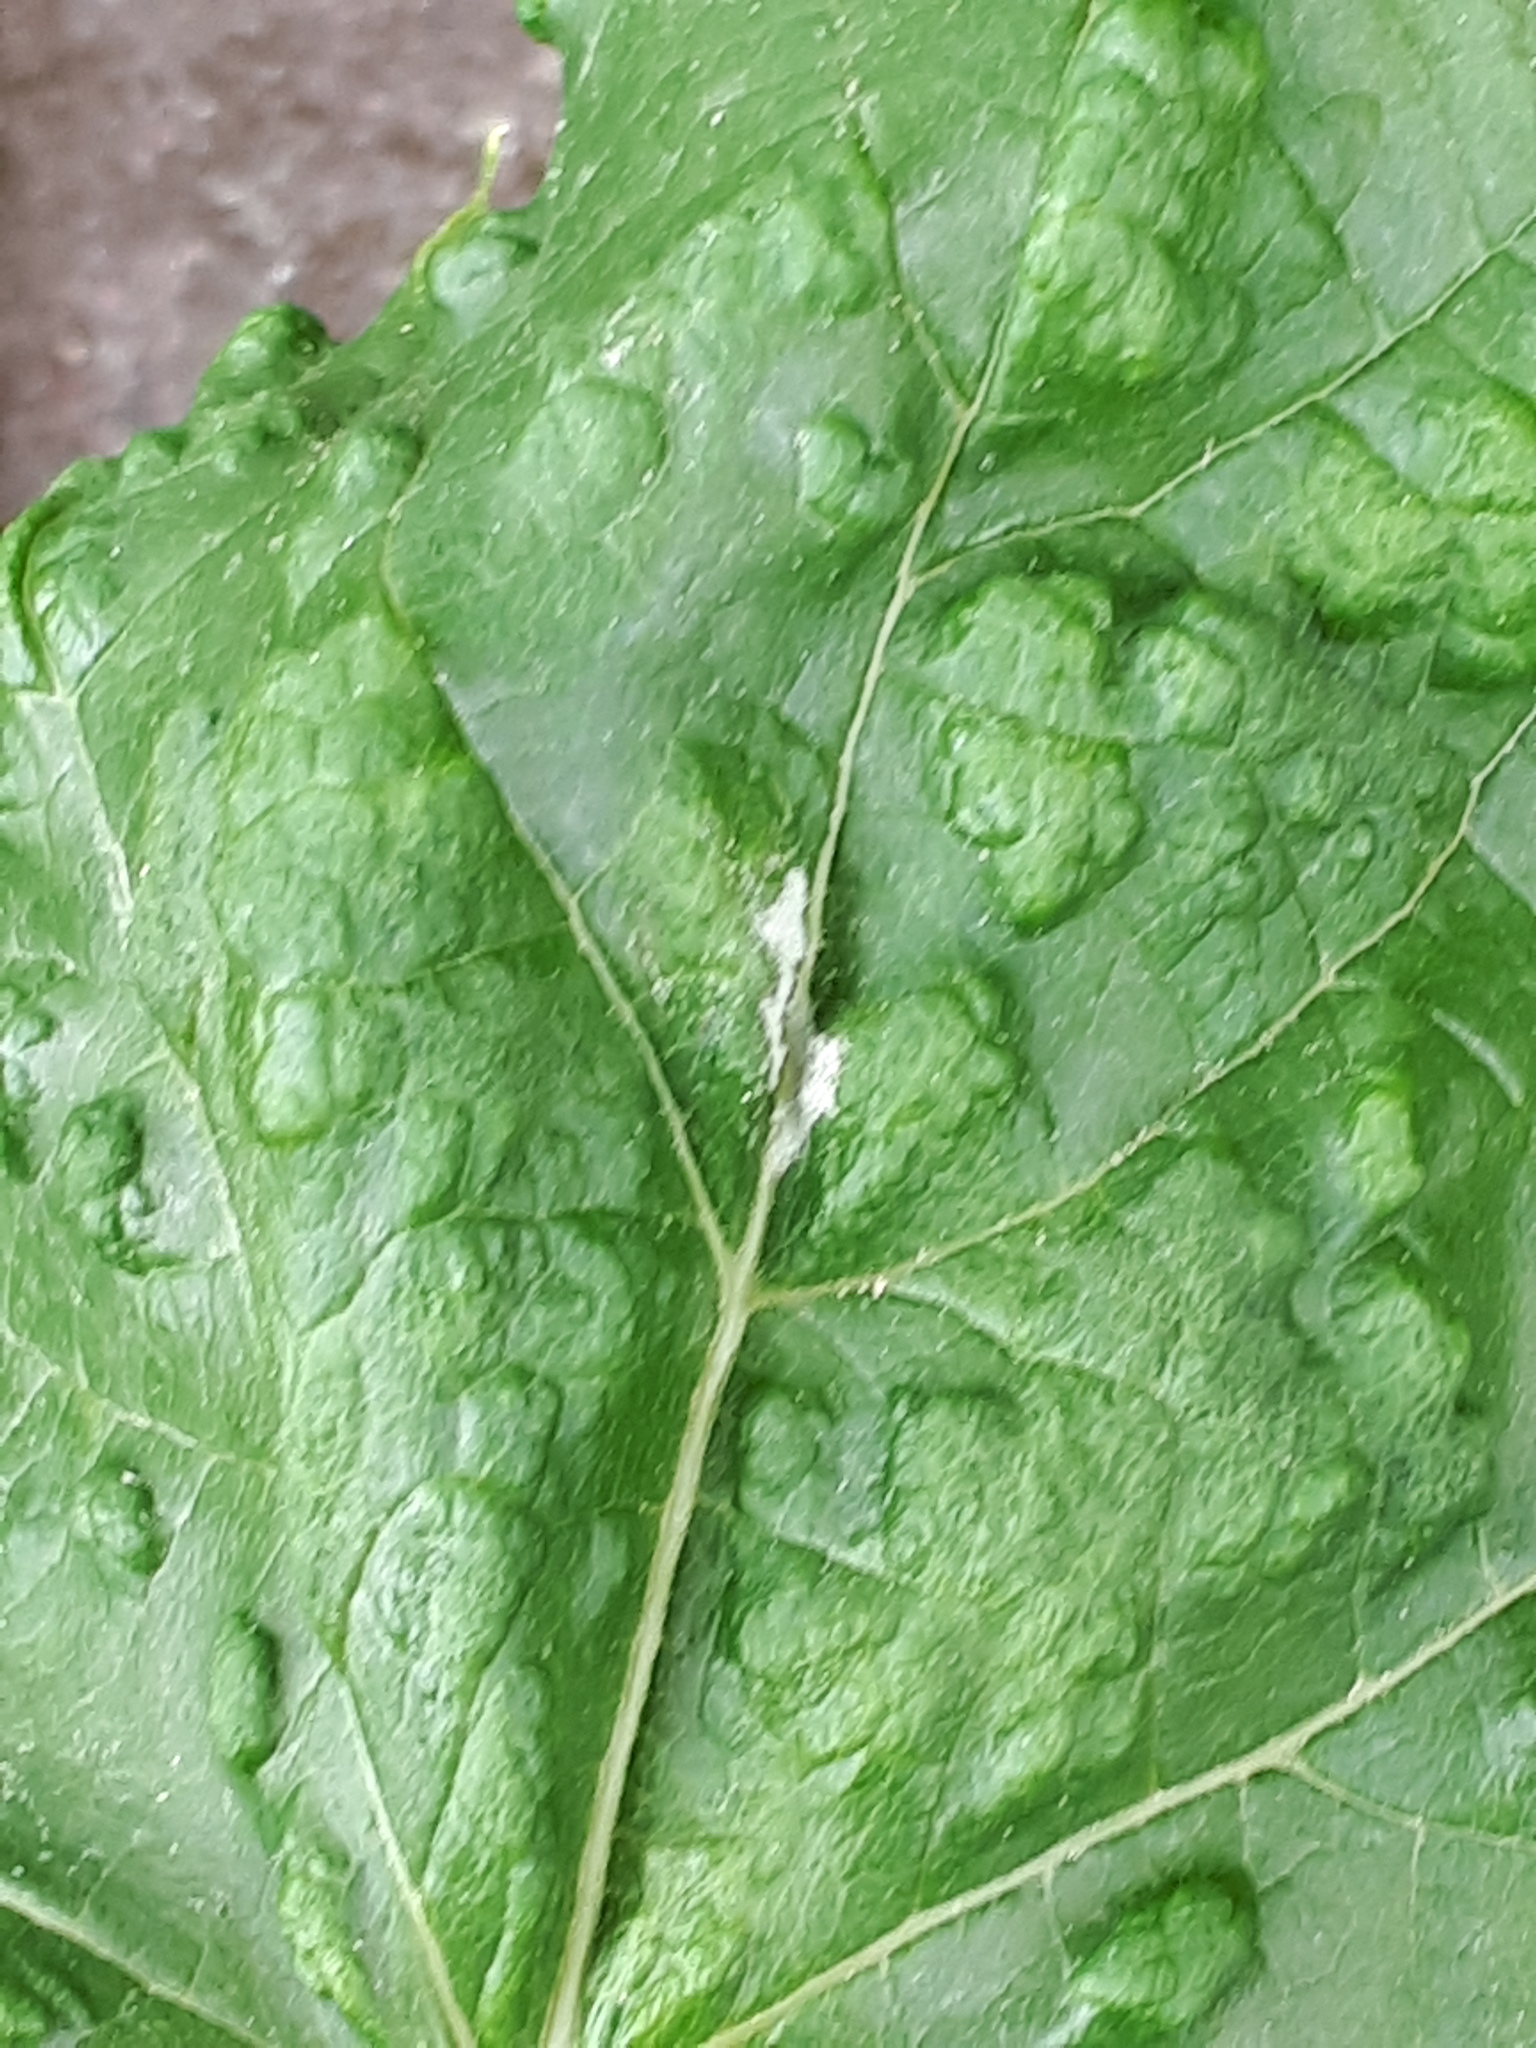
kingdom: Animalia
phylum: Arthropoda
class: Arachnida
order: Trombidiformes
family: Eriophyidae
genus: Colomerus
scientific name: Colomerus vitis
